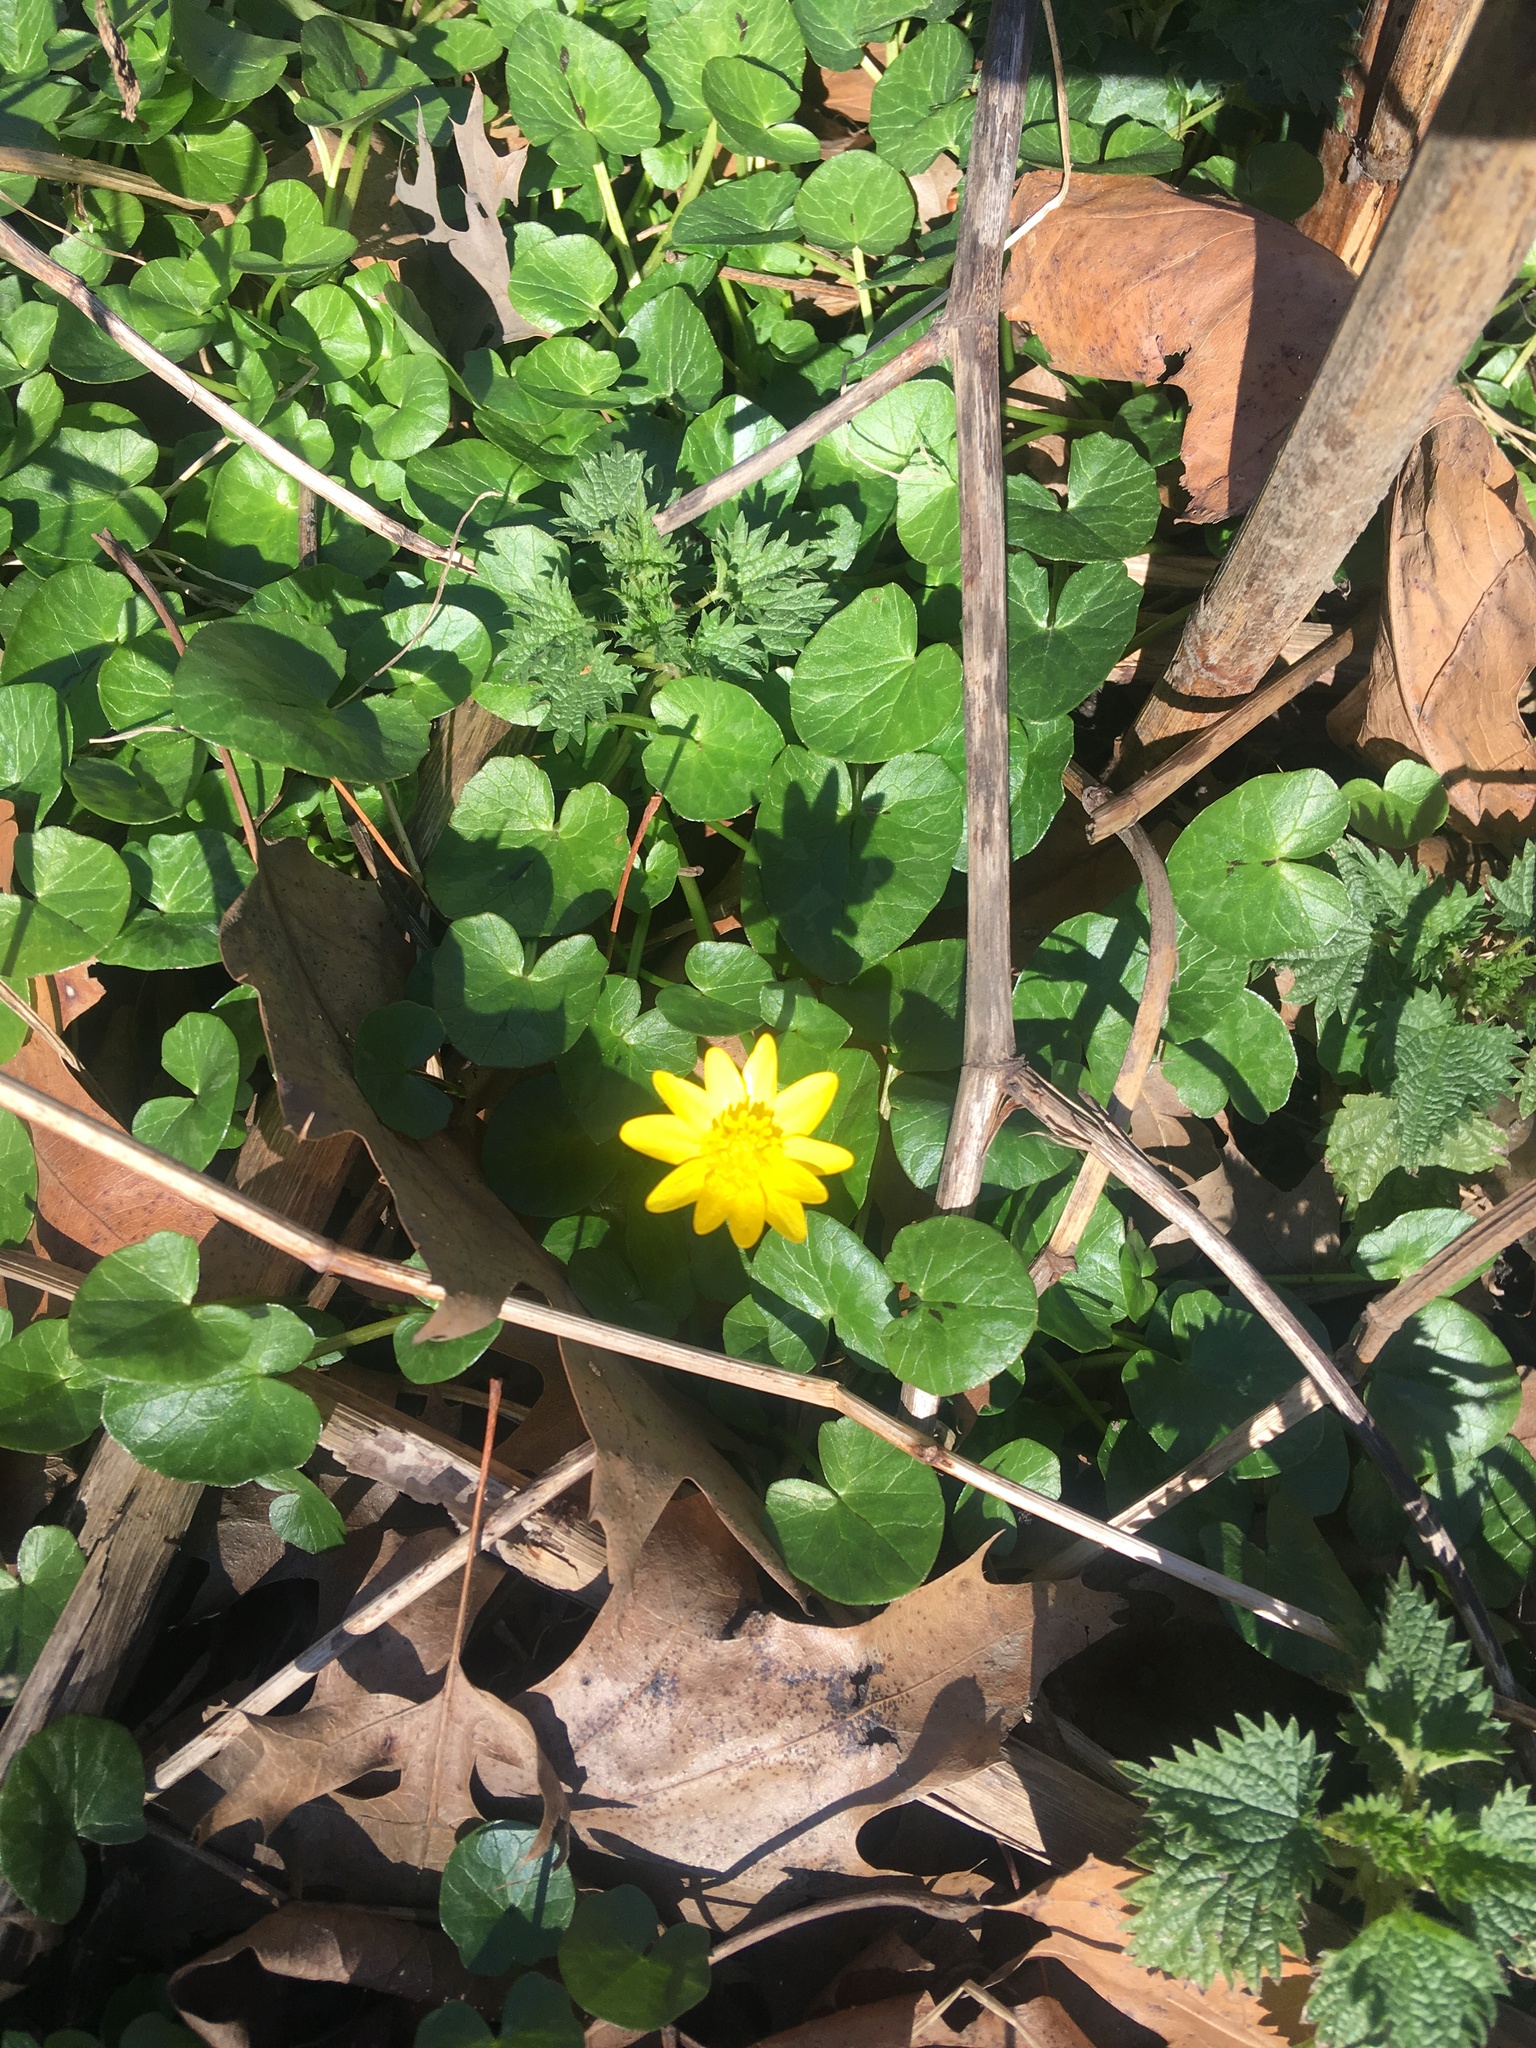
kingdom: Plantae
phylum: Tracheophyta
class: Magnoliopsida
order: Ranunculales
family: Ranunculaceae
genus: Ficaria
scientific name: Ficaria verna
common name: Lesser celandine
